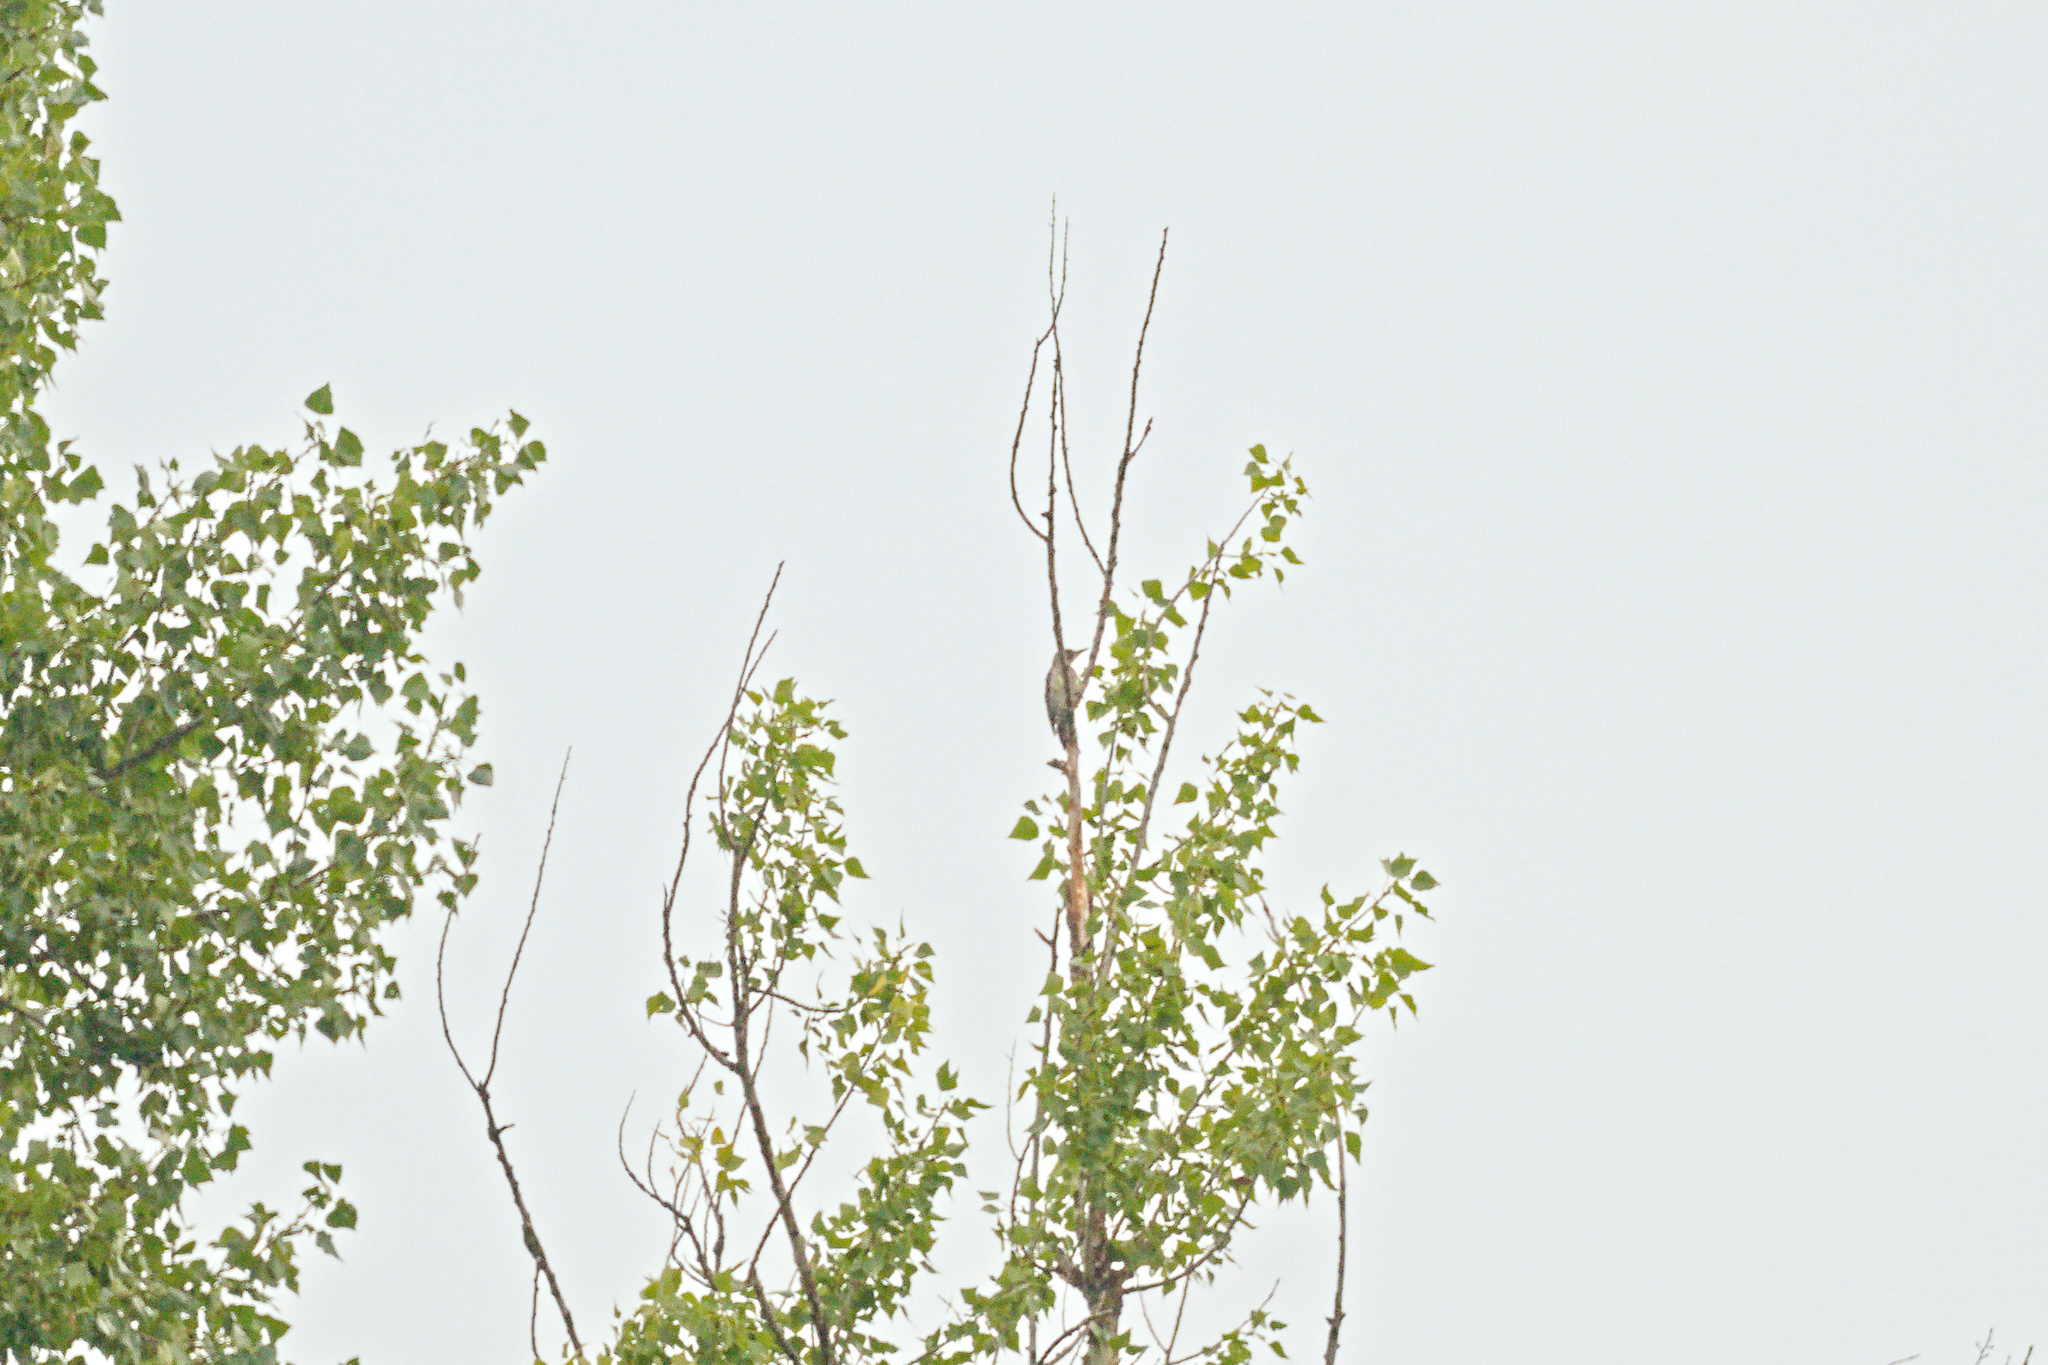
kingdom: Animalia
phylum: Chordata
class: Aves
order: Piciformes
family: Picidae
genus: Picus
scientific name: Picus viridis
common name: European green woodpecker
